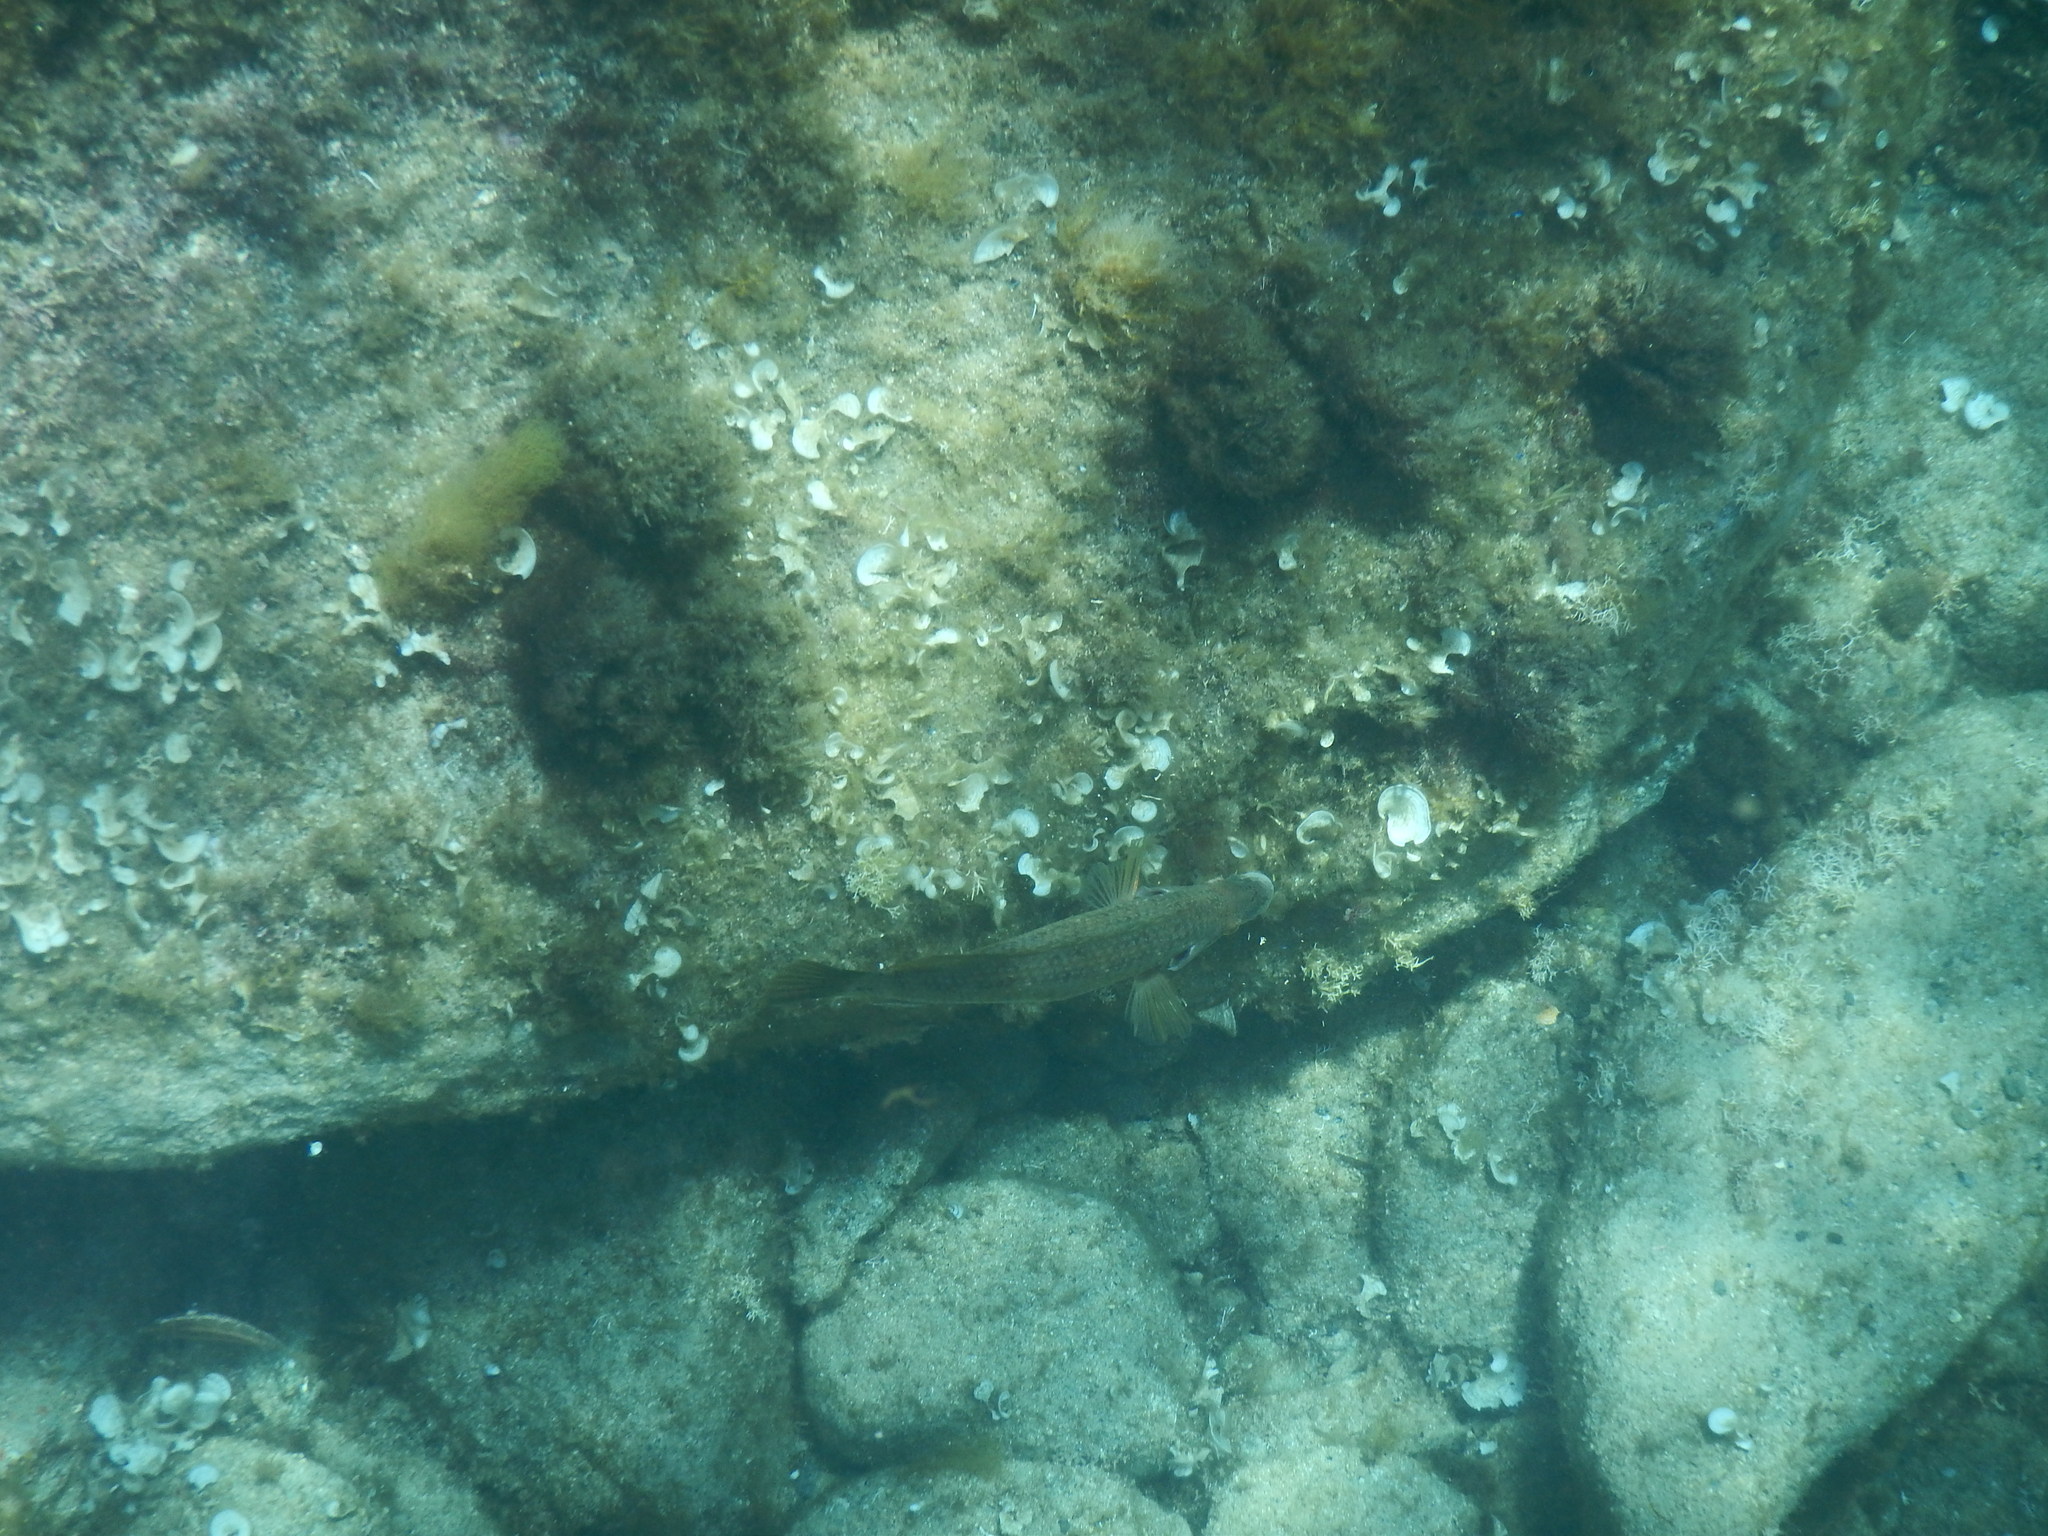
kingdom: Animalia
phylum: Chordata
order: Perciformes
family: Labridae
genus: Symphodus
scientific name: Symphodus tinca
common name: Peacock wrasse
